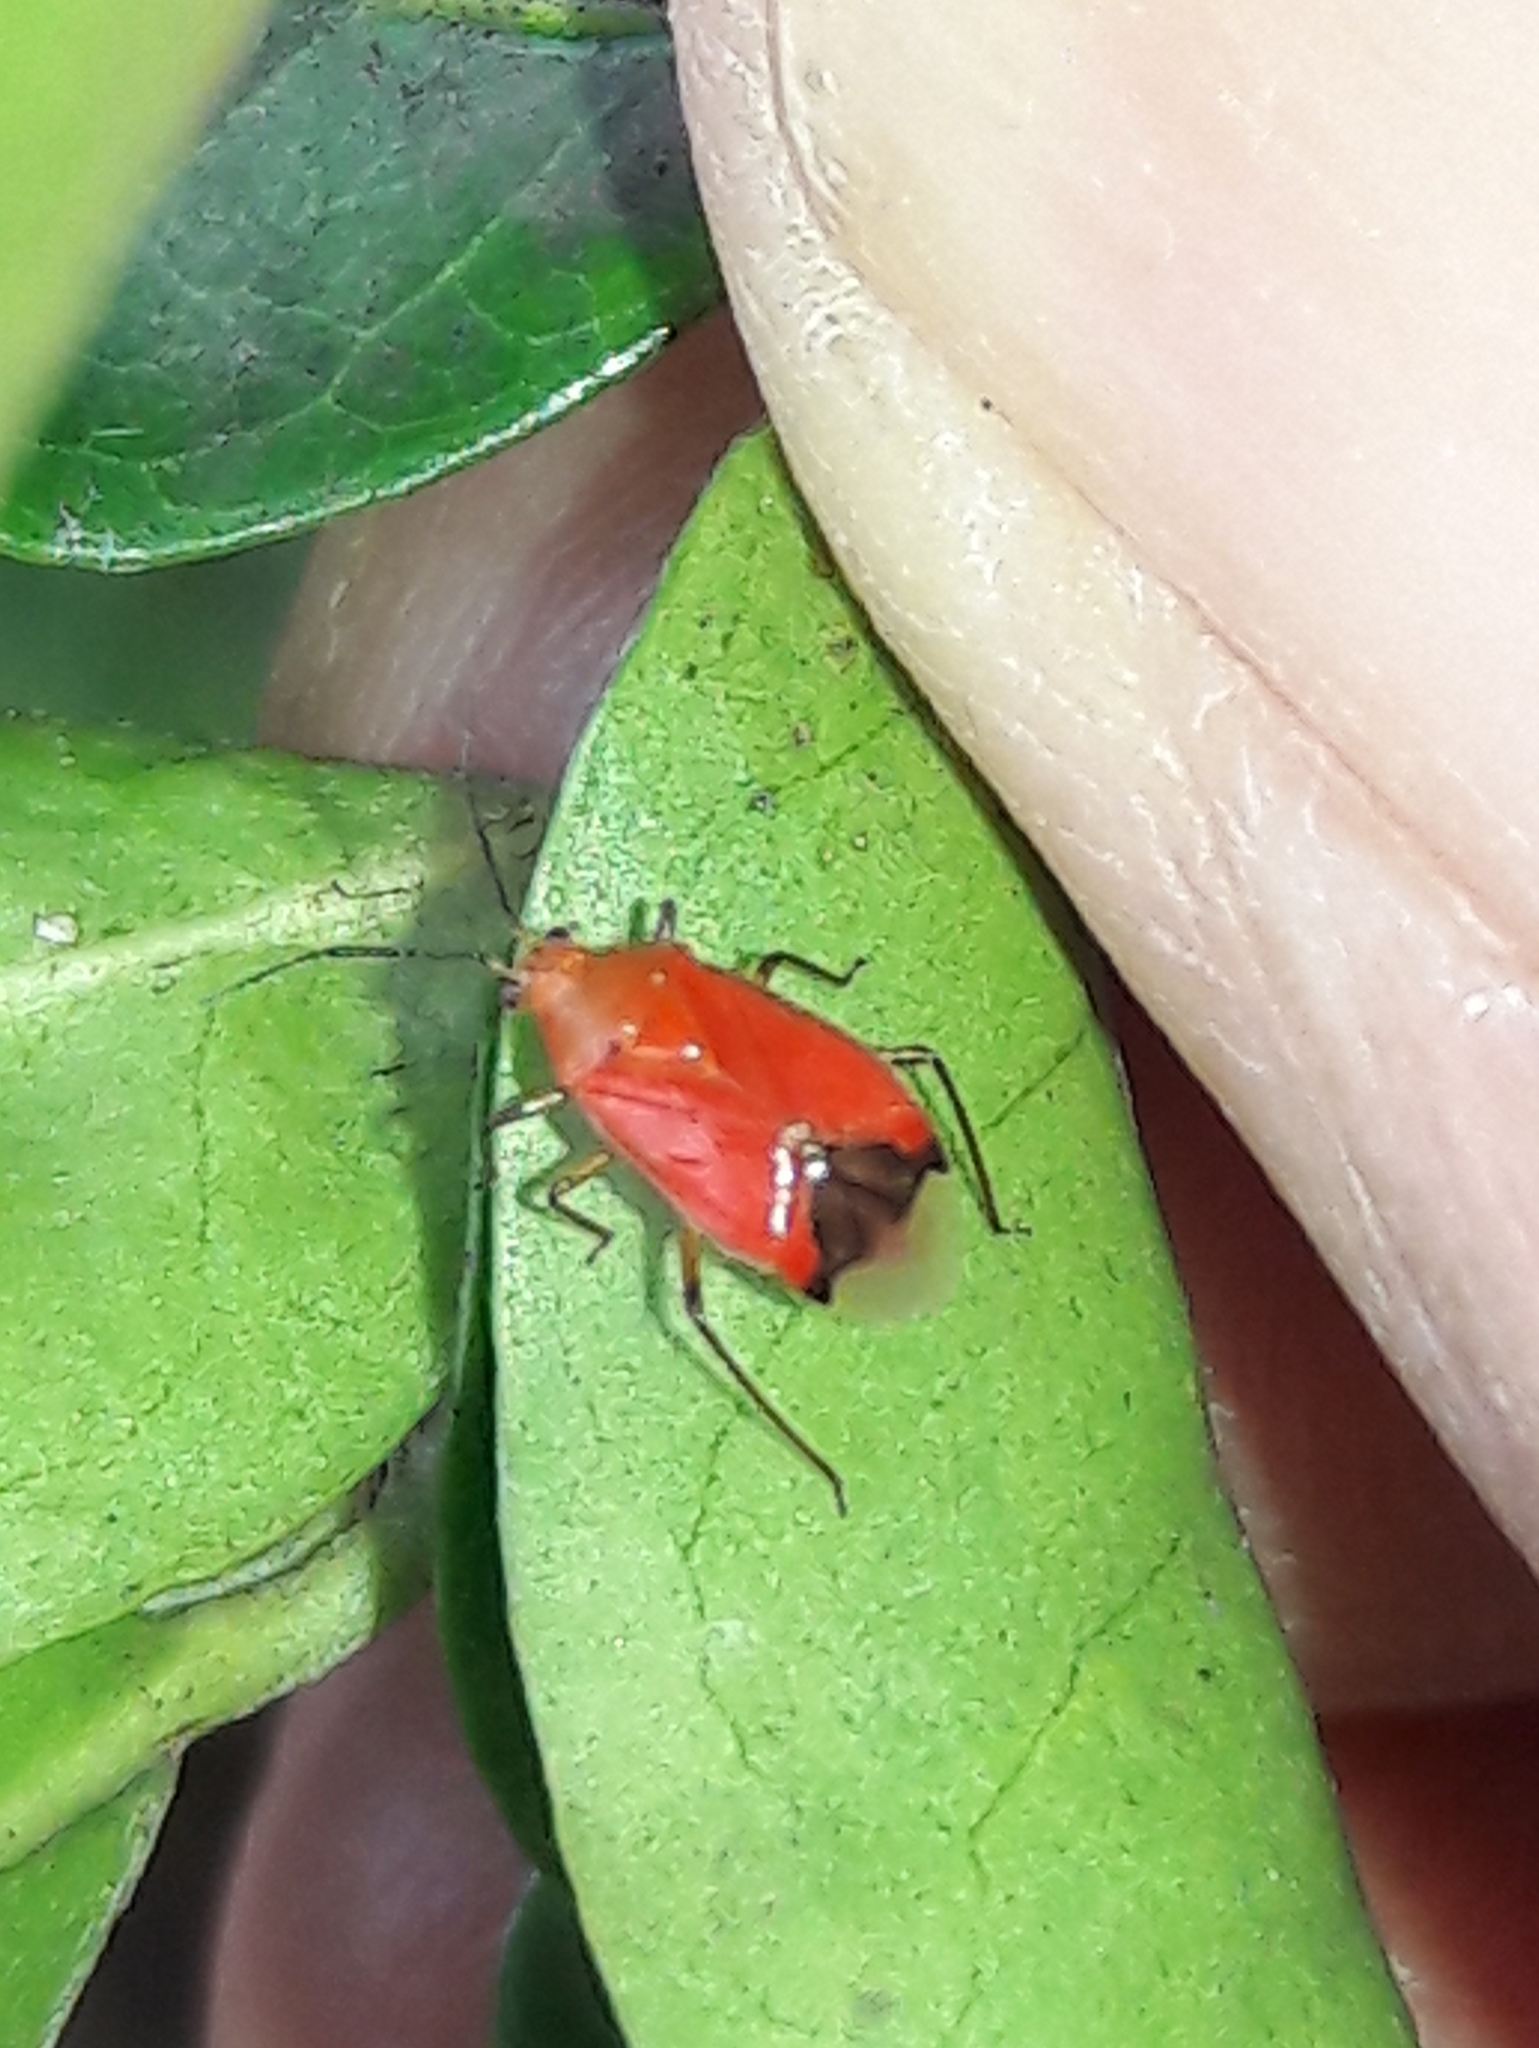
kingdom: Animalia
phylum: Arthropoda
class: Insecta
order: Hemiptera
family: Miridae
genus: Ambracius
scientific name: Ambracius dufouri
